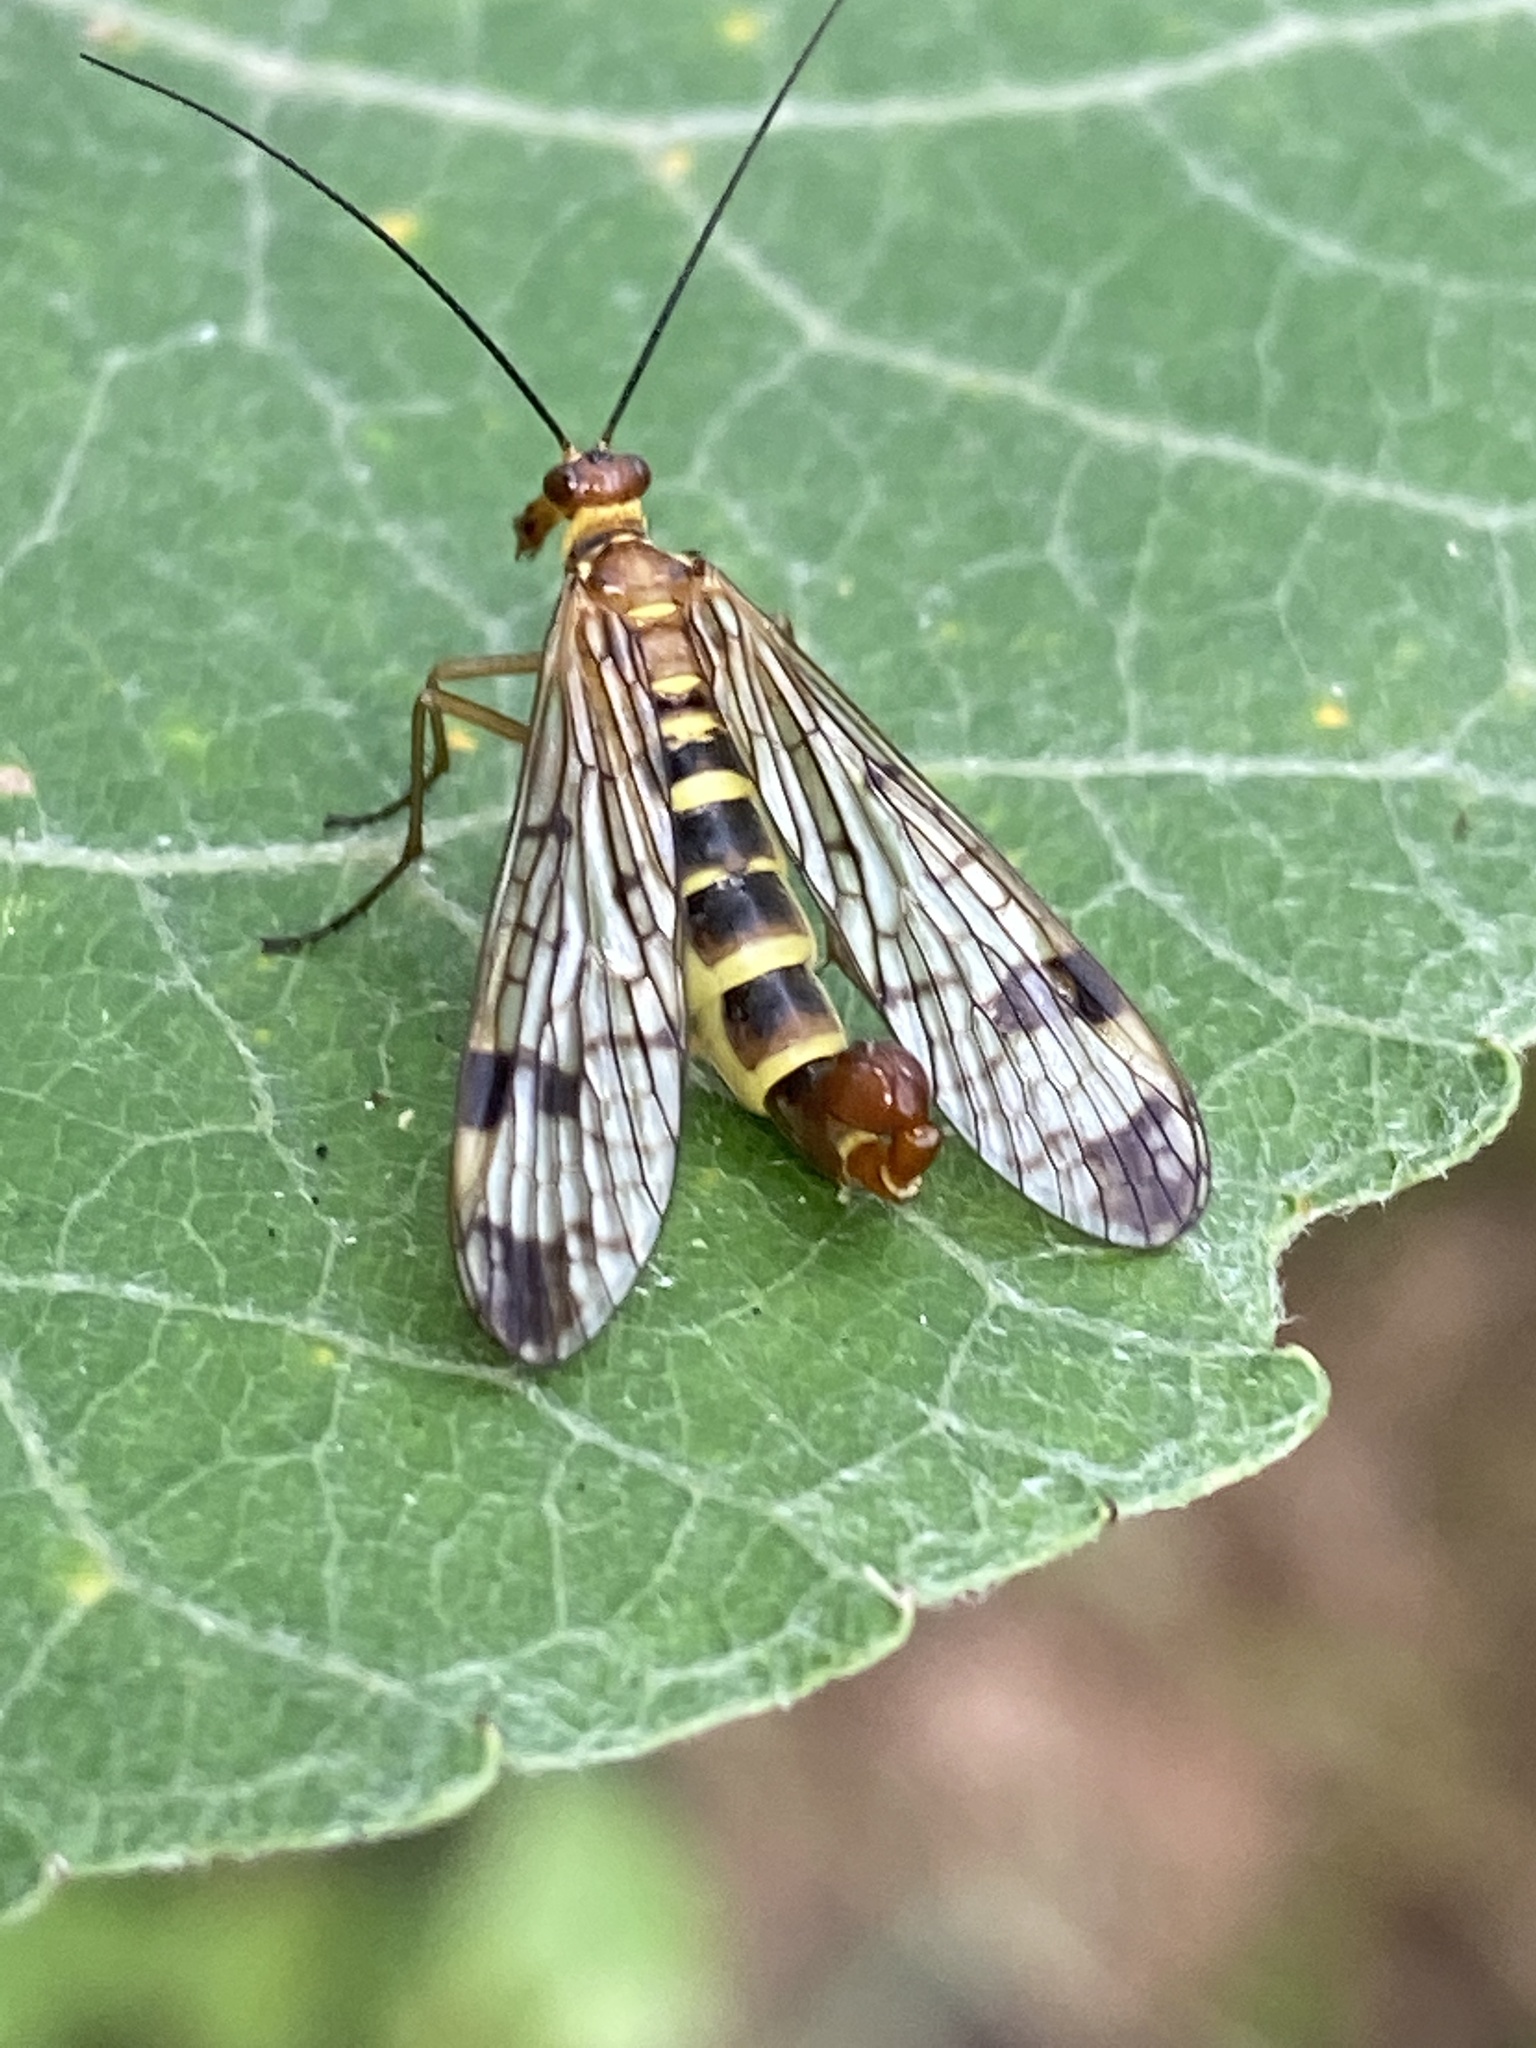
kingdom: Animalia
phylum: Arthropoda
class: Insecta
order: Mecoptera
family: Panorpidae
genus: Panorpa
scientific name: Panorpa cognata
